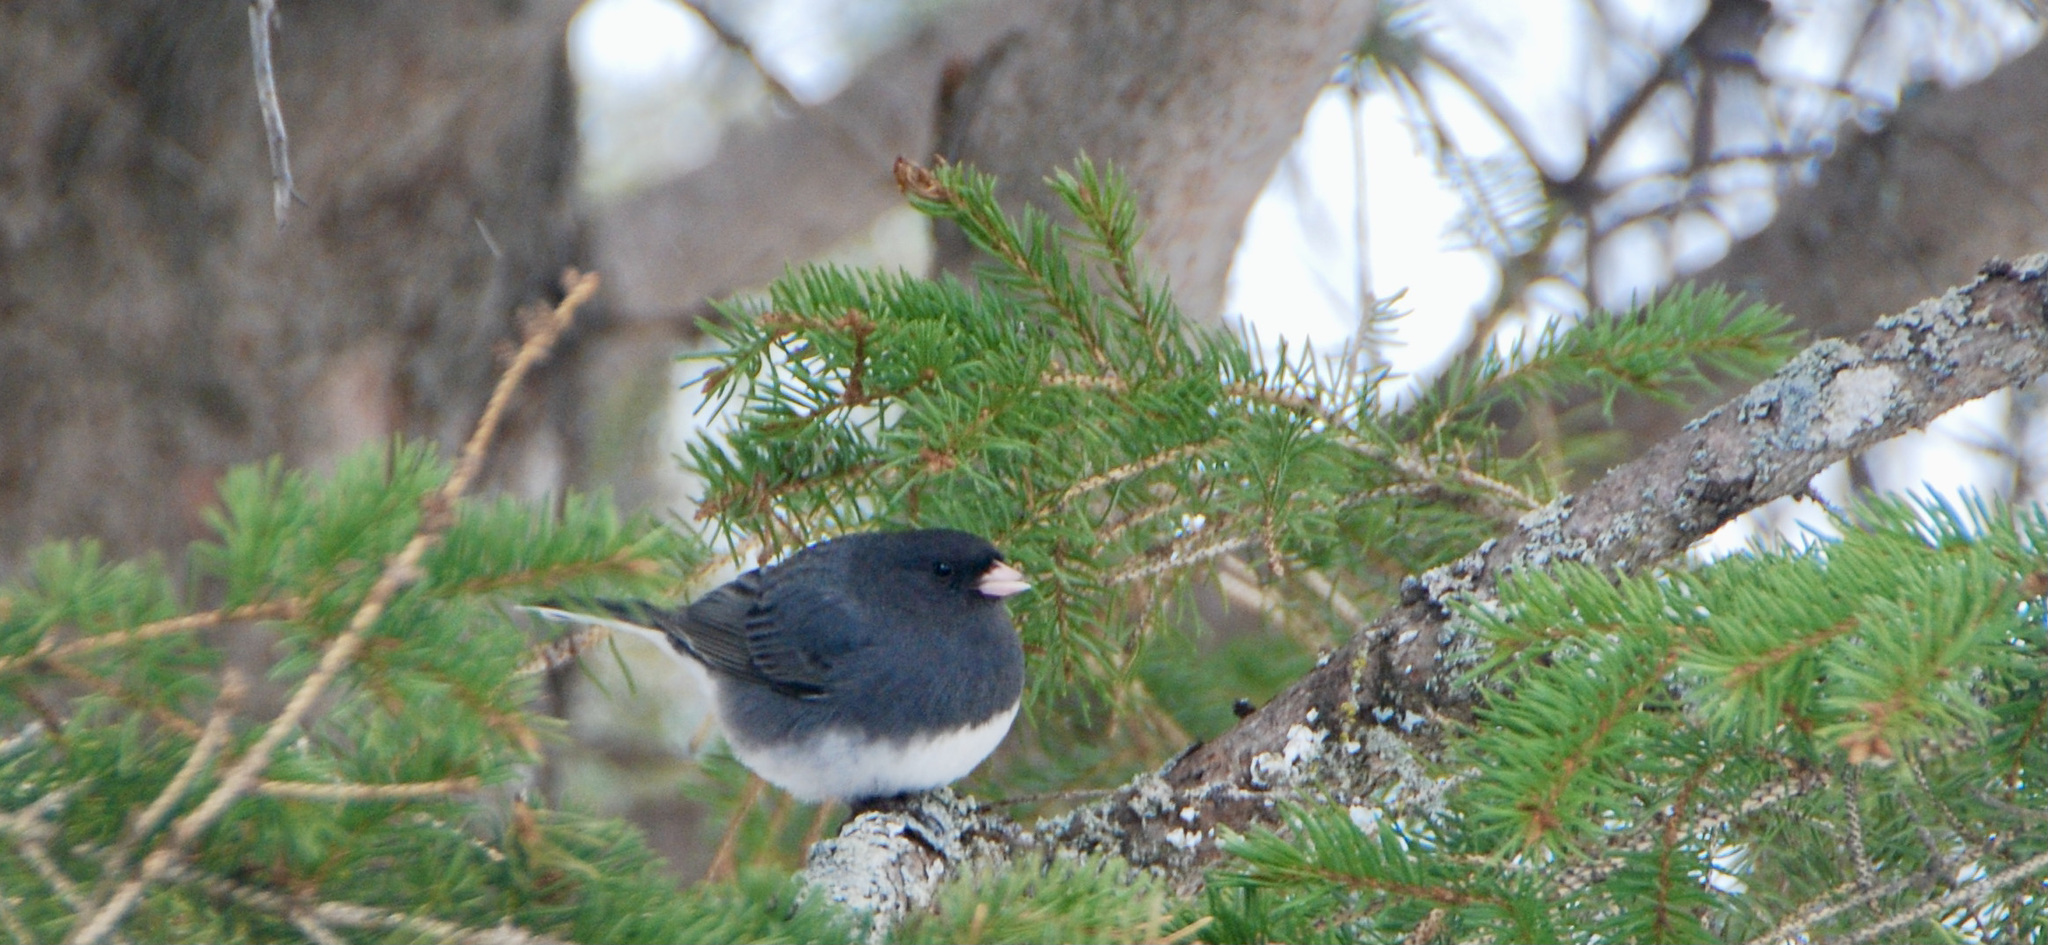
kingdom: Animalia
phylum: Chordata
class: Aves
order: Passeriformes
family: Passerellidae
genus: Junco
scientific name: Junco hyemalis
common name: Dark-eyed junco
